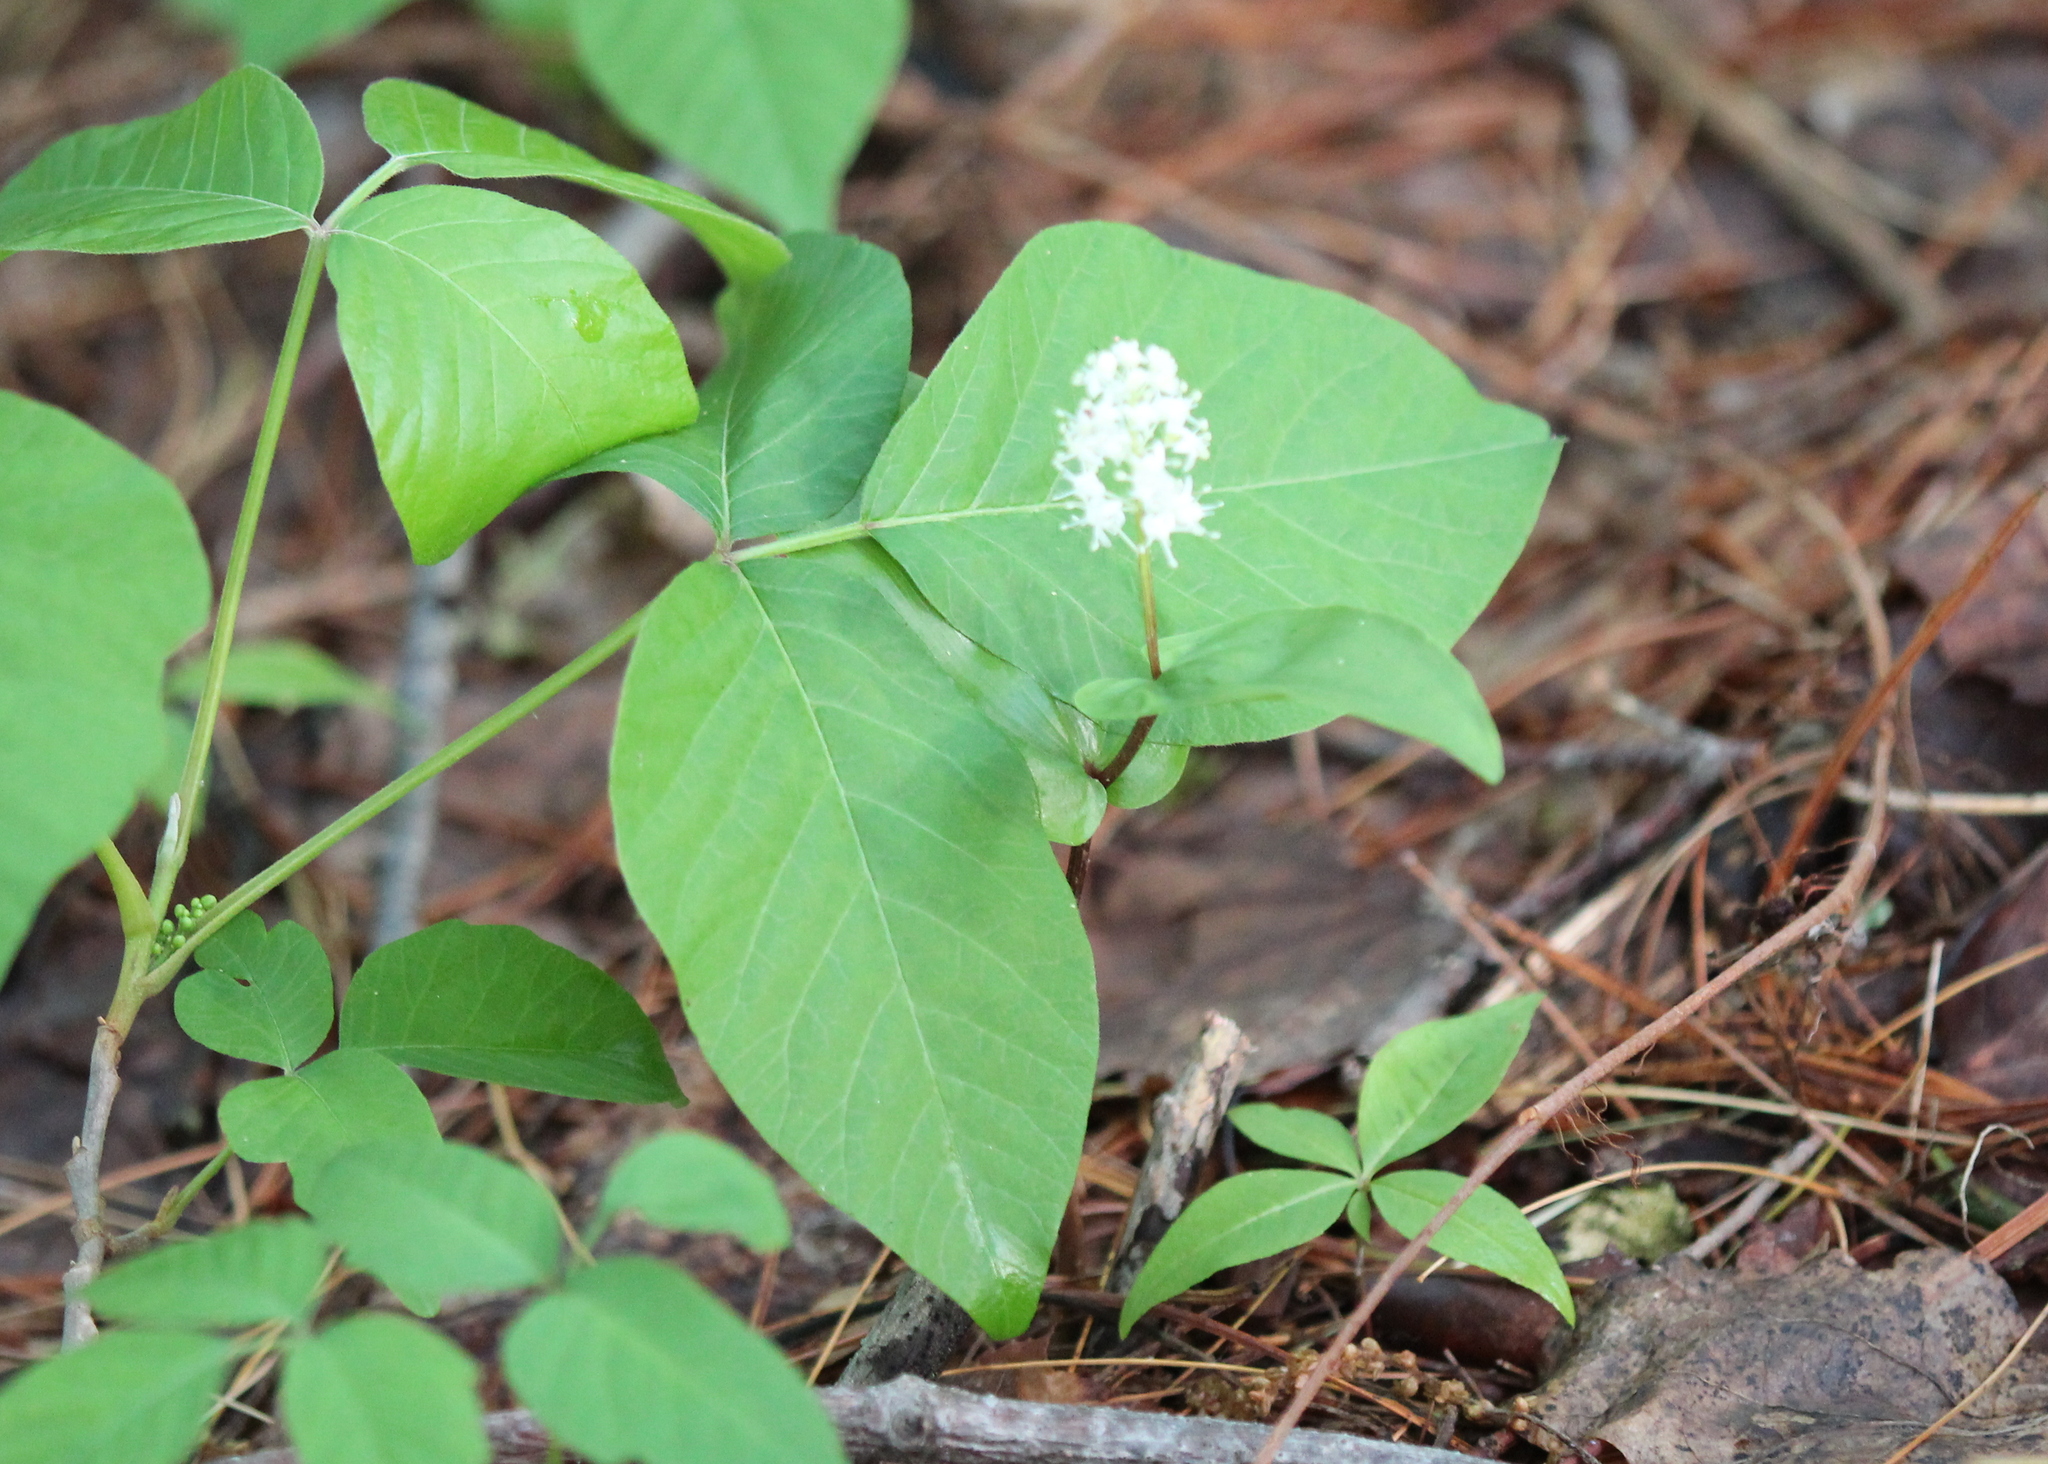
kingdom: Plantae
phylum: Tracheophyta
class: Liliopsida
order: Asparagales
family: Asparagaceae
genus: Maianthemum
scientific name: Maianthemum canadense
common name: False lily-of-the-valley
